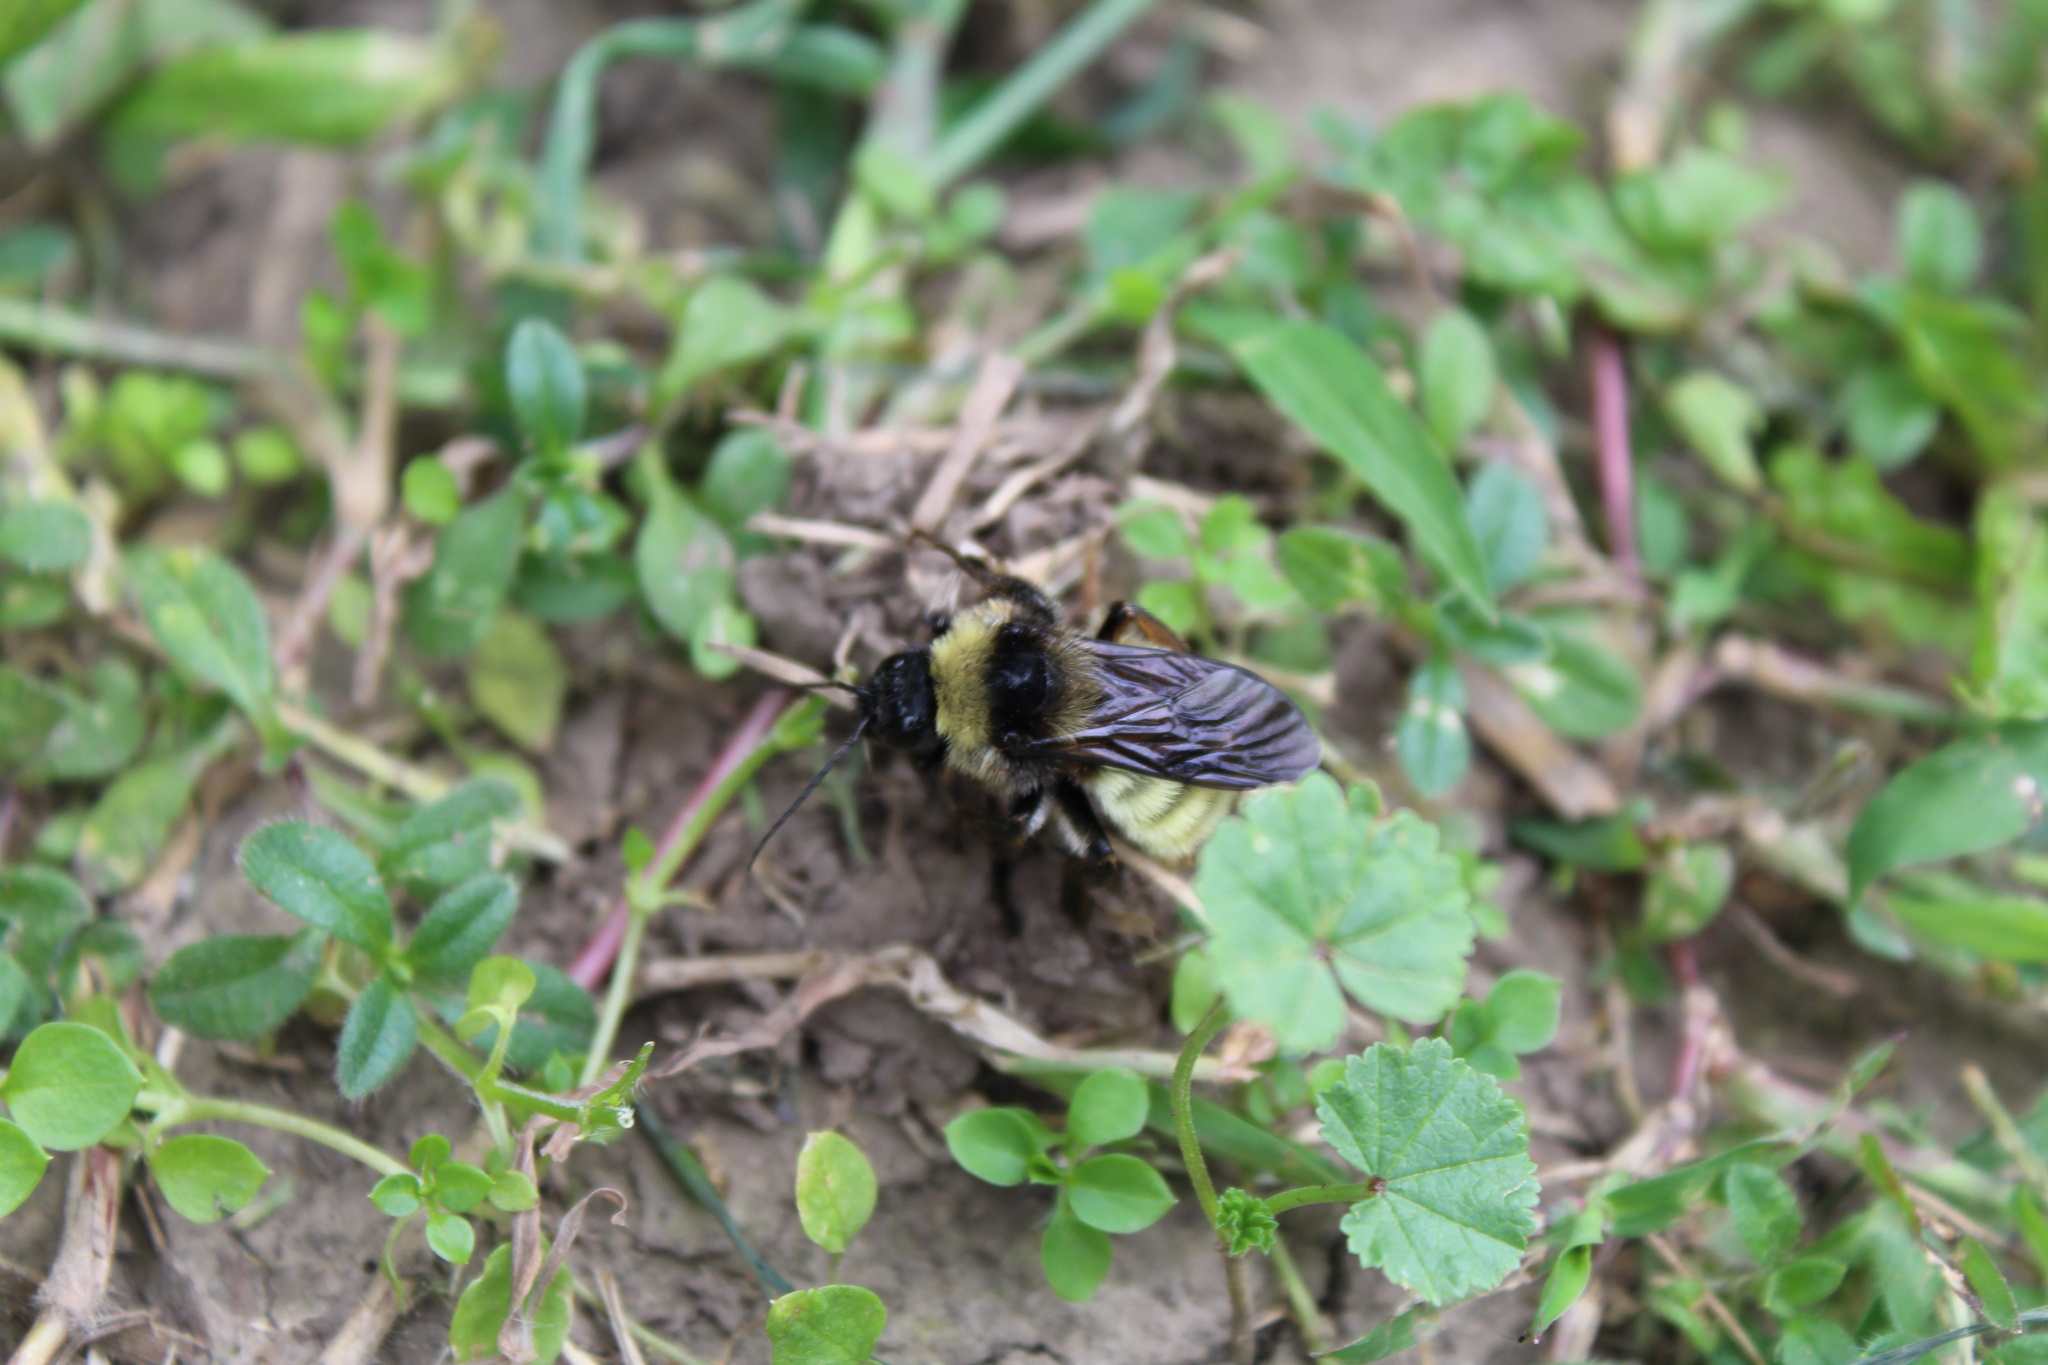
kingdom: Animalia
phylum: Arthropoda
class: Insecta
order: Hymenoptera
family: Apidae
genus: Bombus
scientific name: Bombus pensylvanicus
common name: Bumble bee
